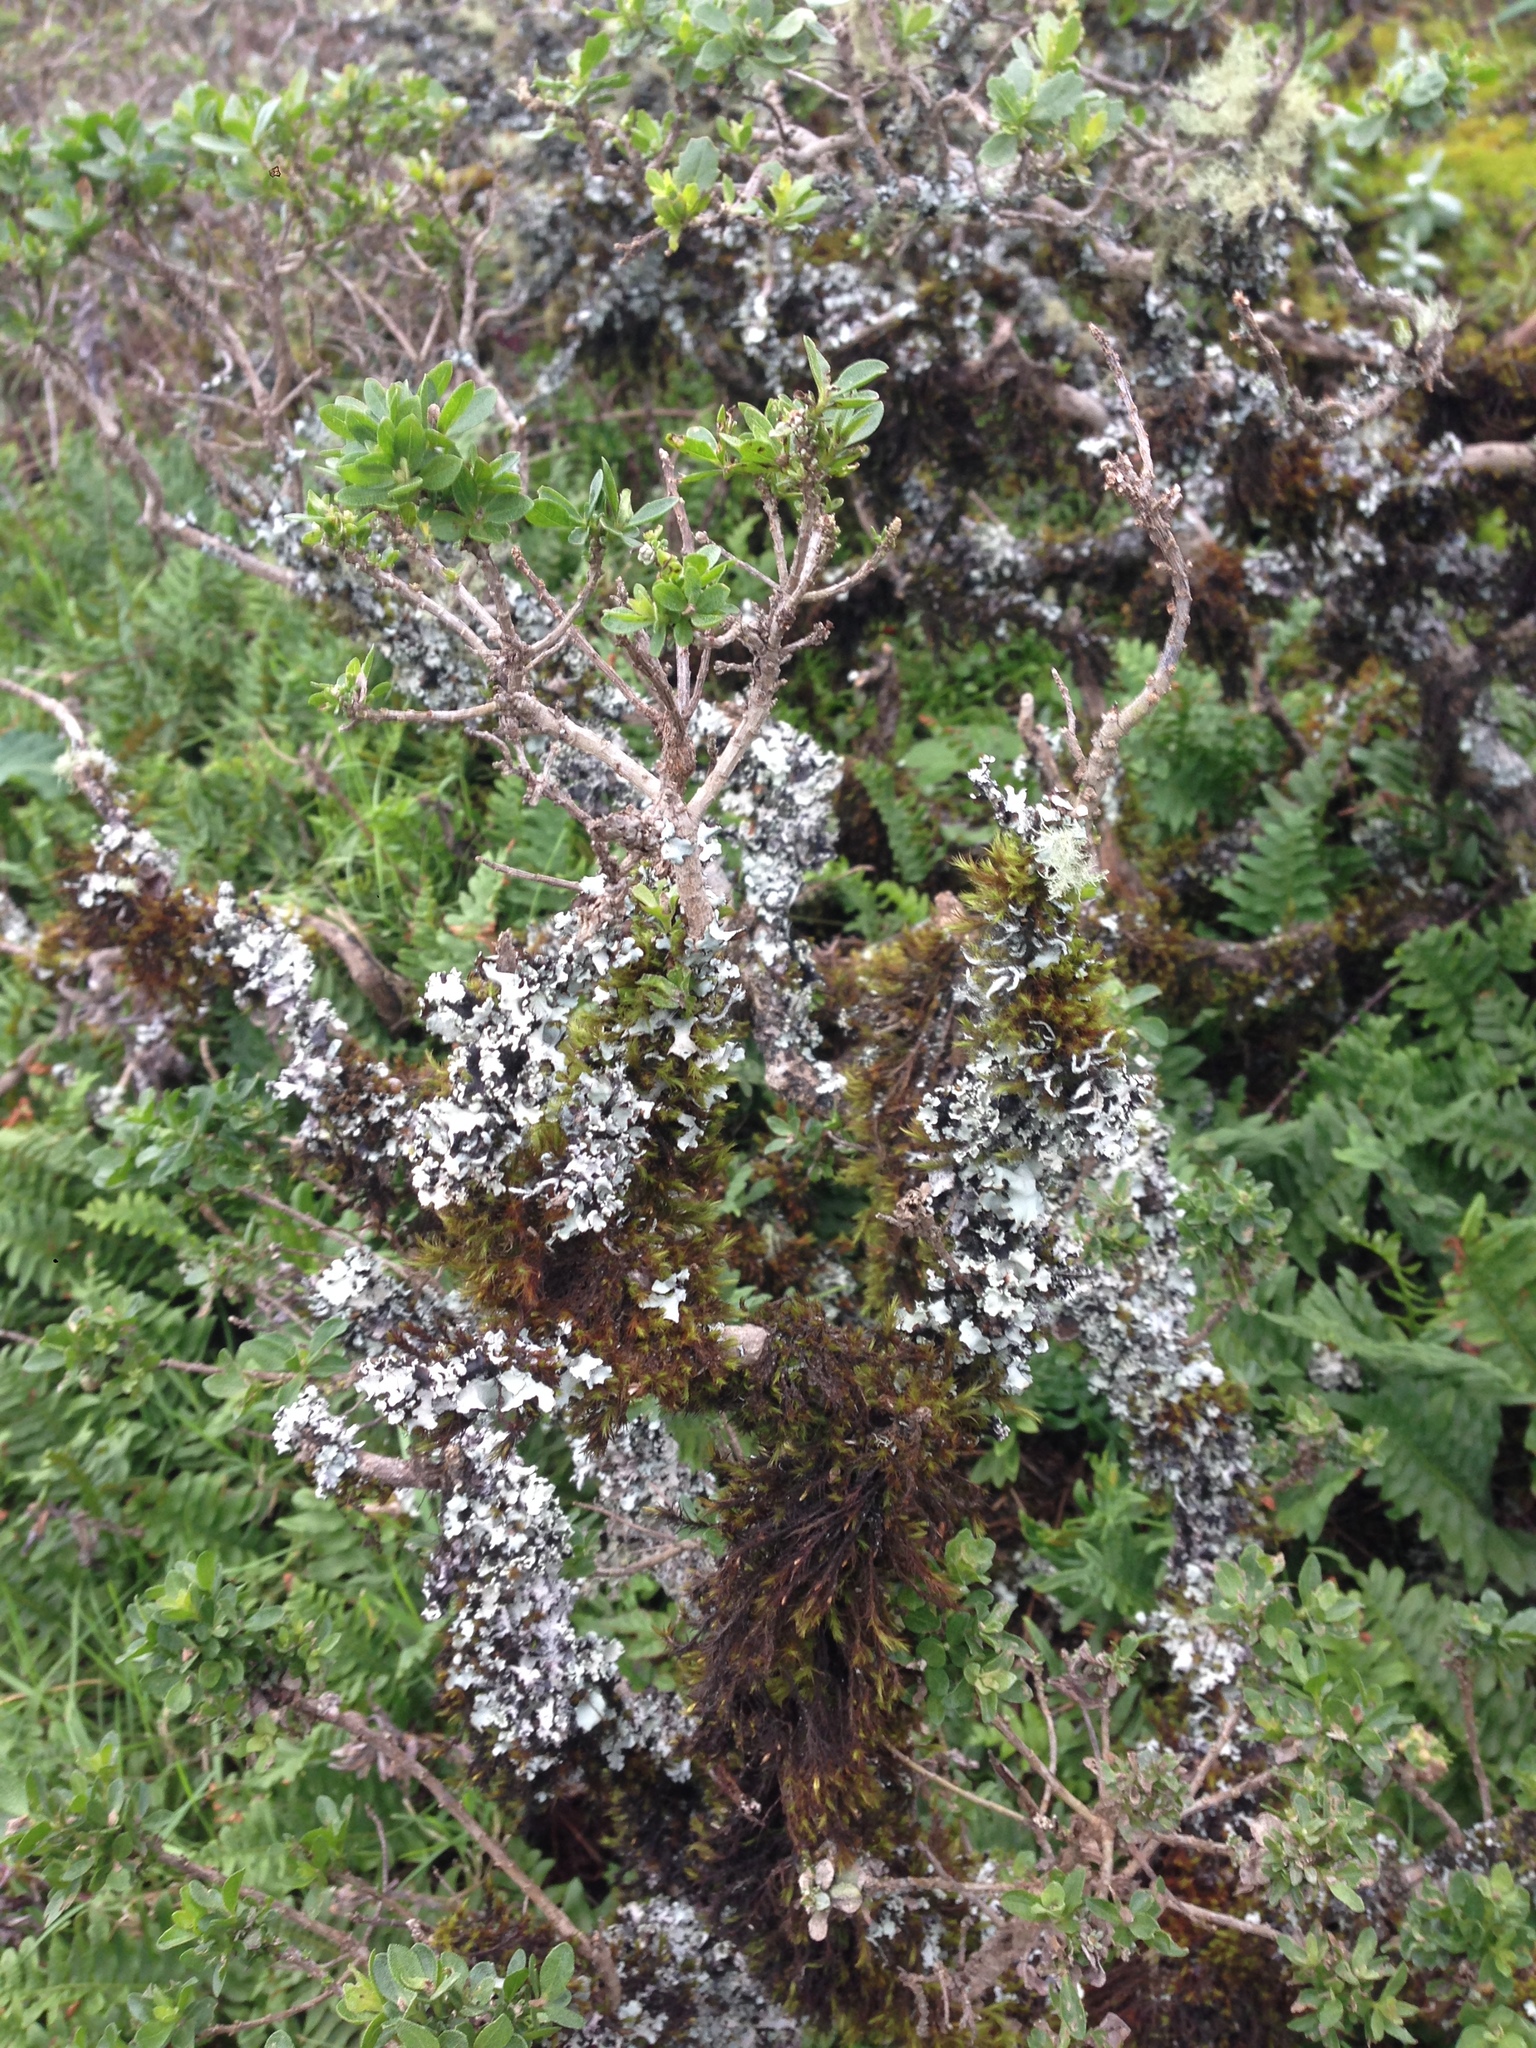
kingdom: Plantae
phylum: Tracheophyta
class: Magnoliopsida
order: Asterales
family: Asteraceae
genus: Baccharis
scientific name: Baccharis pilularis
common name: Coyotebrush
